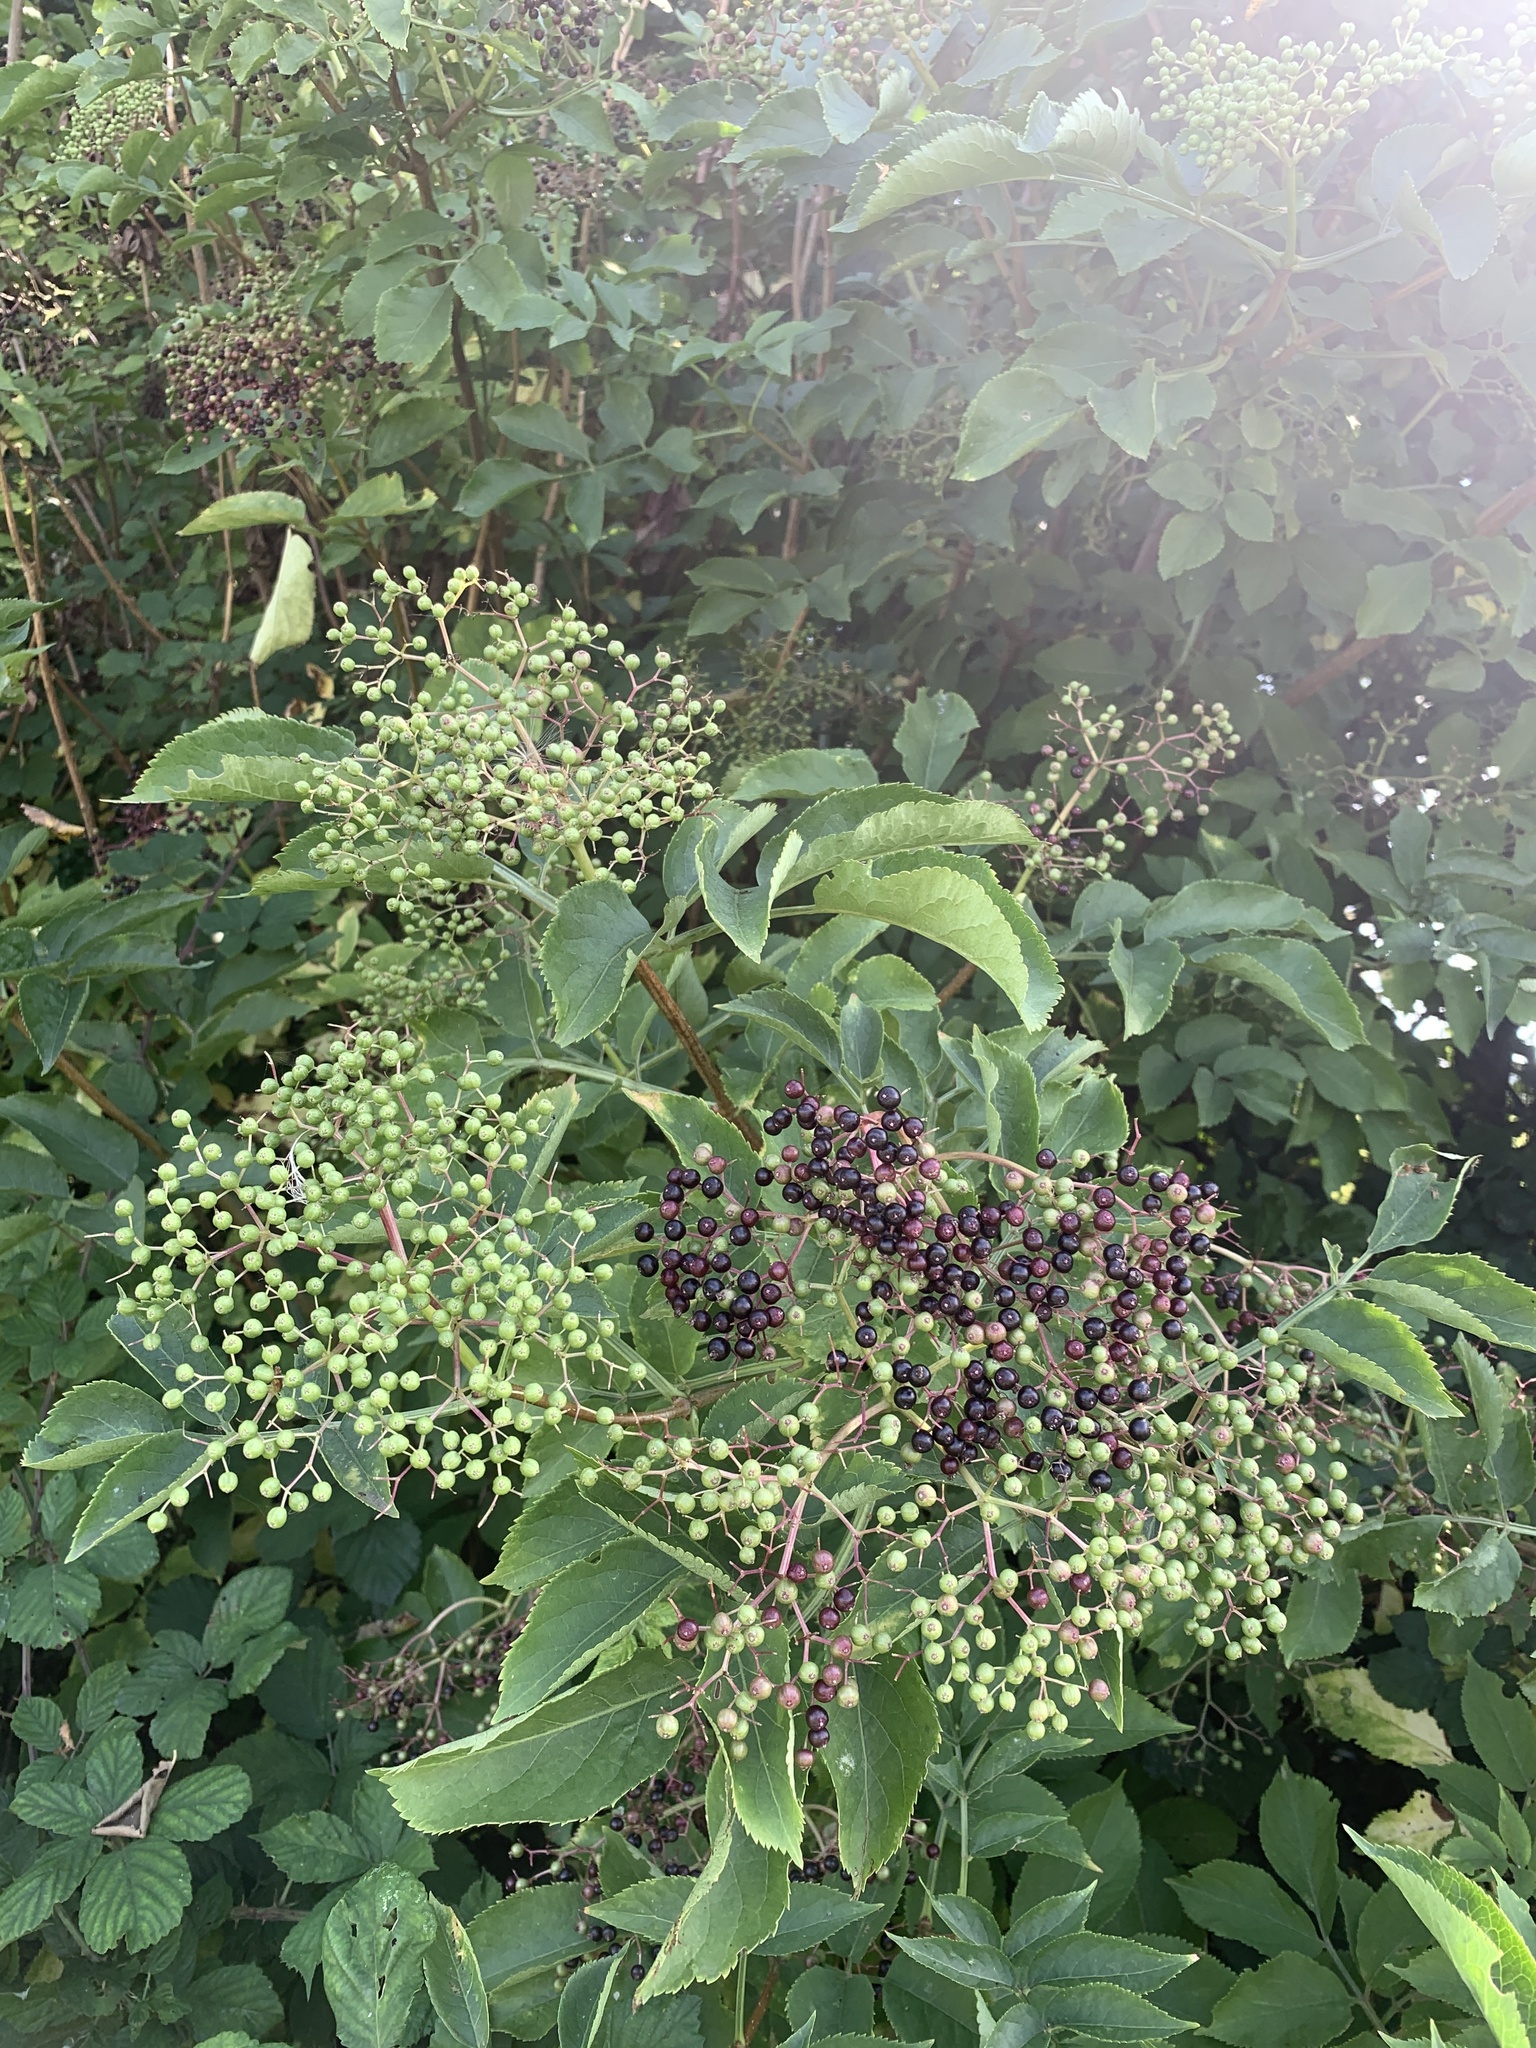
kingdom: Plantae
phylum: Tracheophyta
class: Magnoliopsida
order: Dipsacales
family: Viburnaceae
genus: Sambucus
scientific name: Sambucus nigra
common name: Elder
